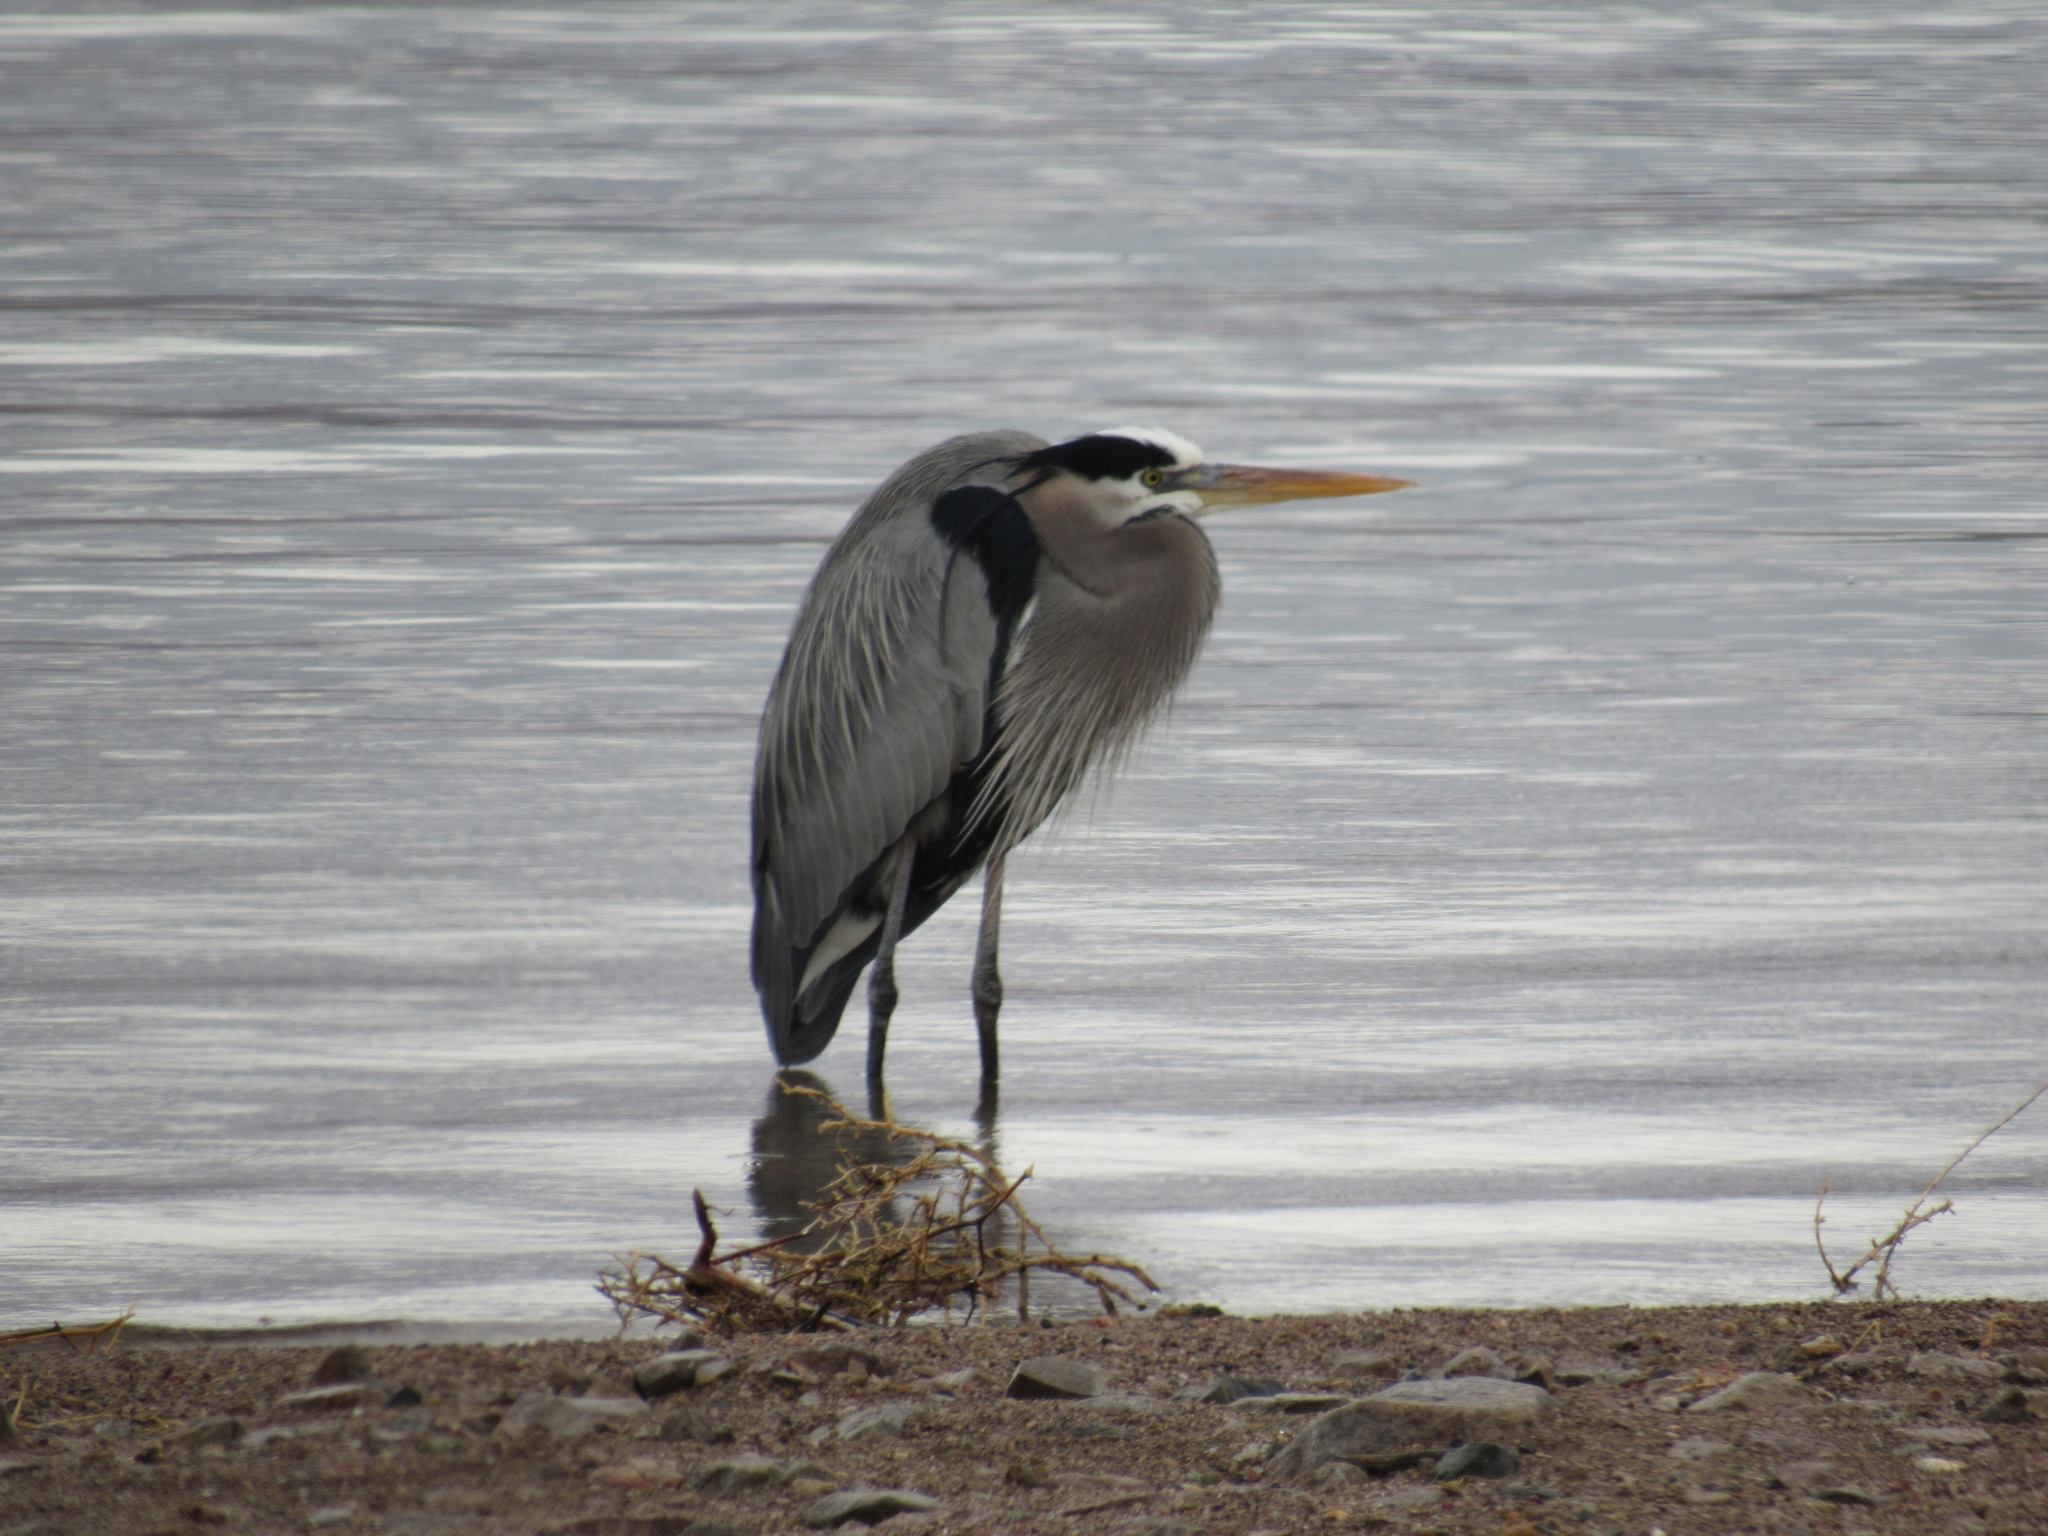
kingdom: Animalia
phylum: Chordata
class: Aves
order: Pelecaniformes
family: Ardeidae
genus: Ardea
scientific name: Ardea herodias
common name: Great blue heron
